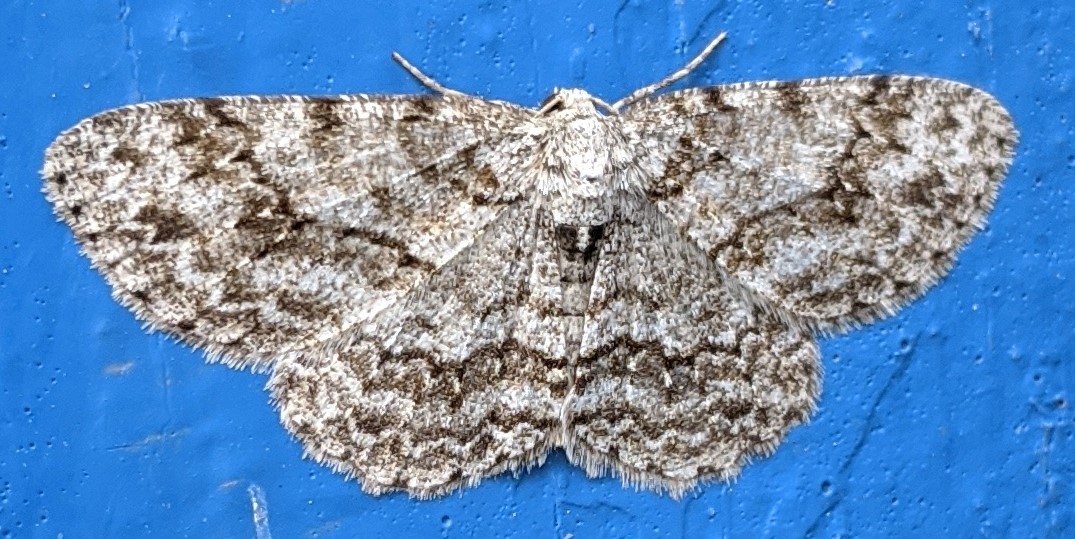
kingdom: Animalia
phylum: Arthropoda
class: Insecta
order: Lepidoptera
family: Geometridae
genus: Ectropis
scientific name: Ectropis crepuscularia
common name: Engrailed
